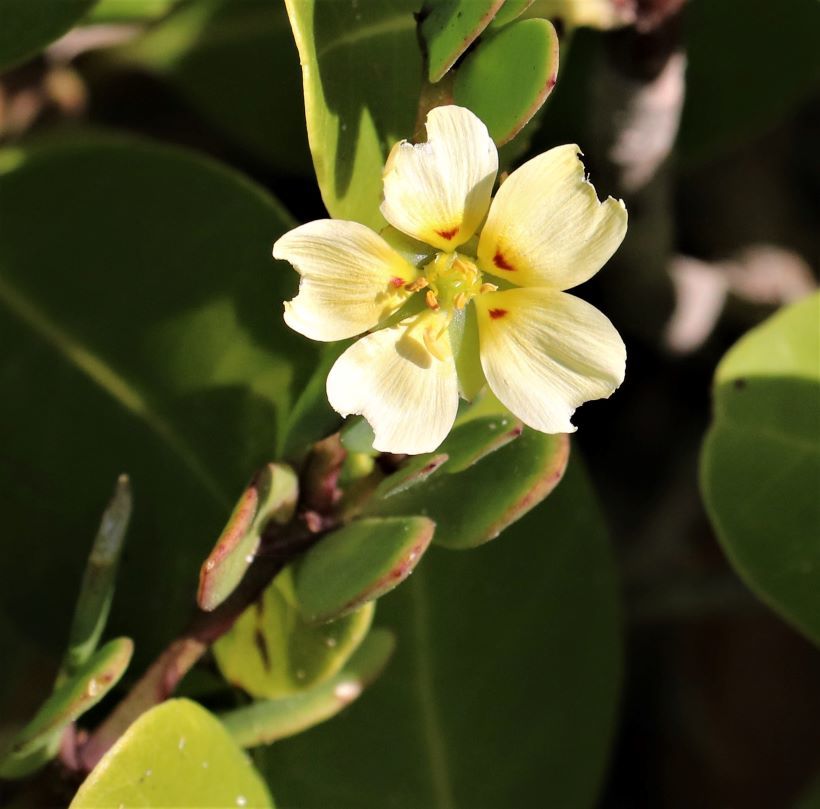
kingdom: Plantae
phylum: Tracheophyta
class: Magnoliopsida
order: Zygophyllales
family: Zygophyllaceae
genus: Roepera
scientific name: Roepera maritima
